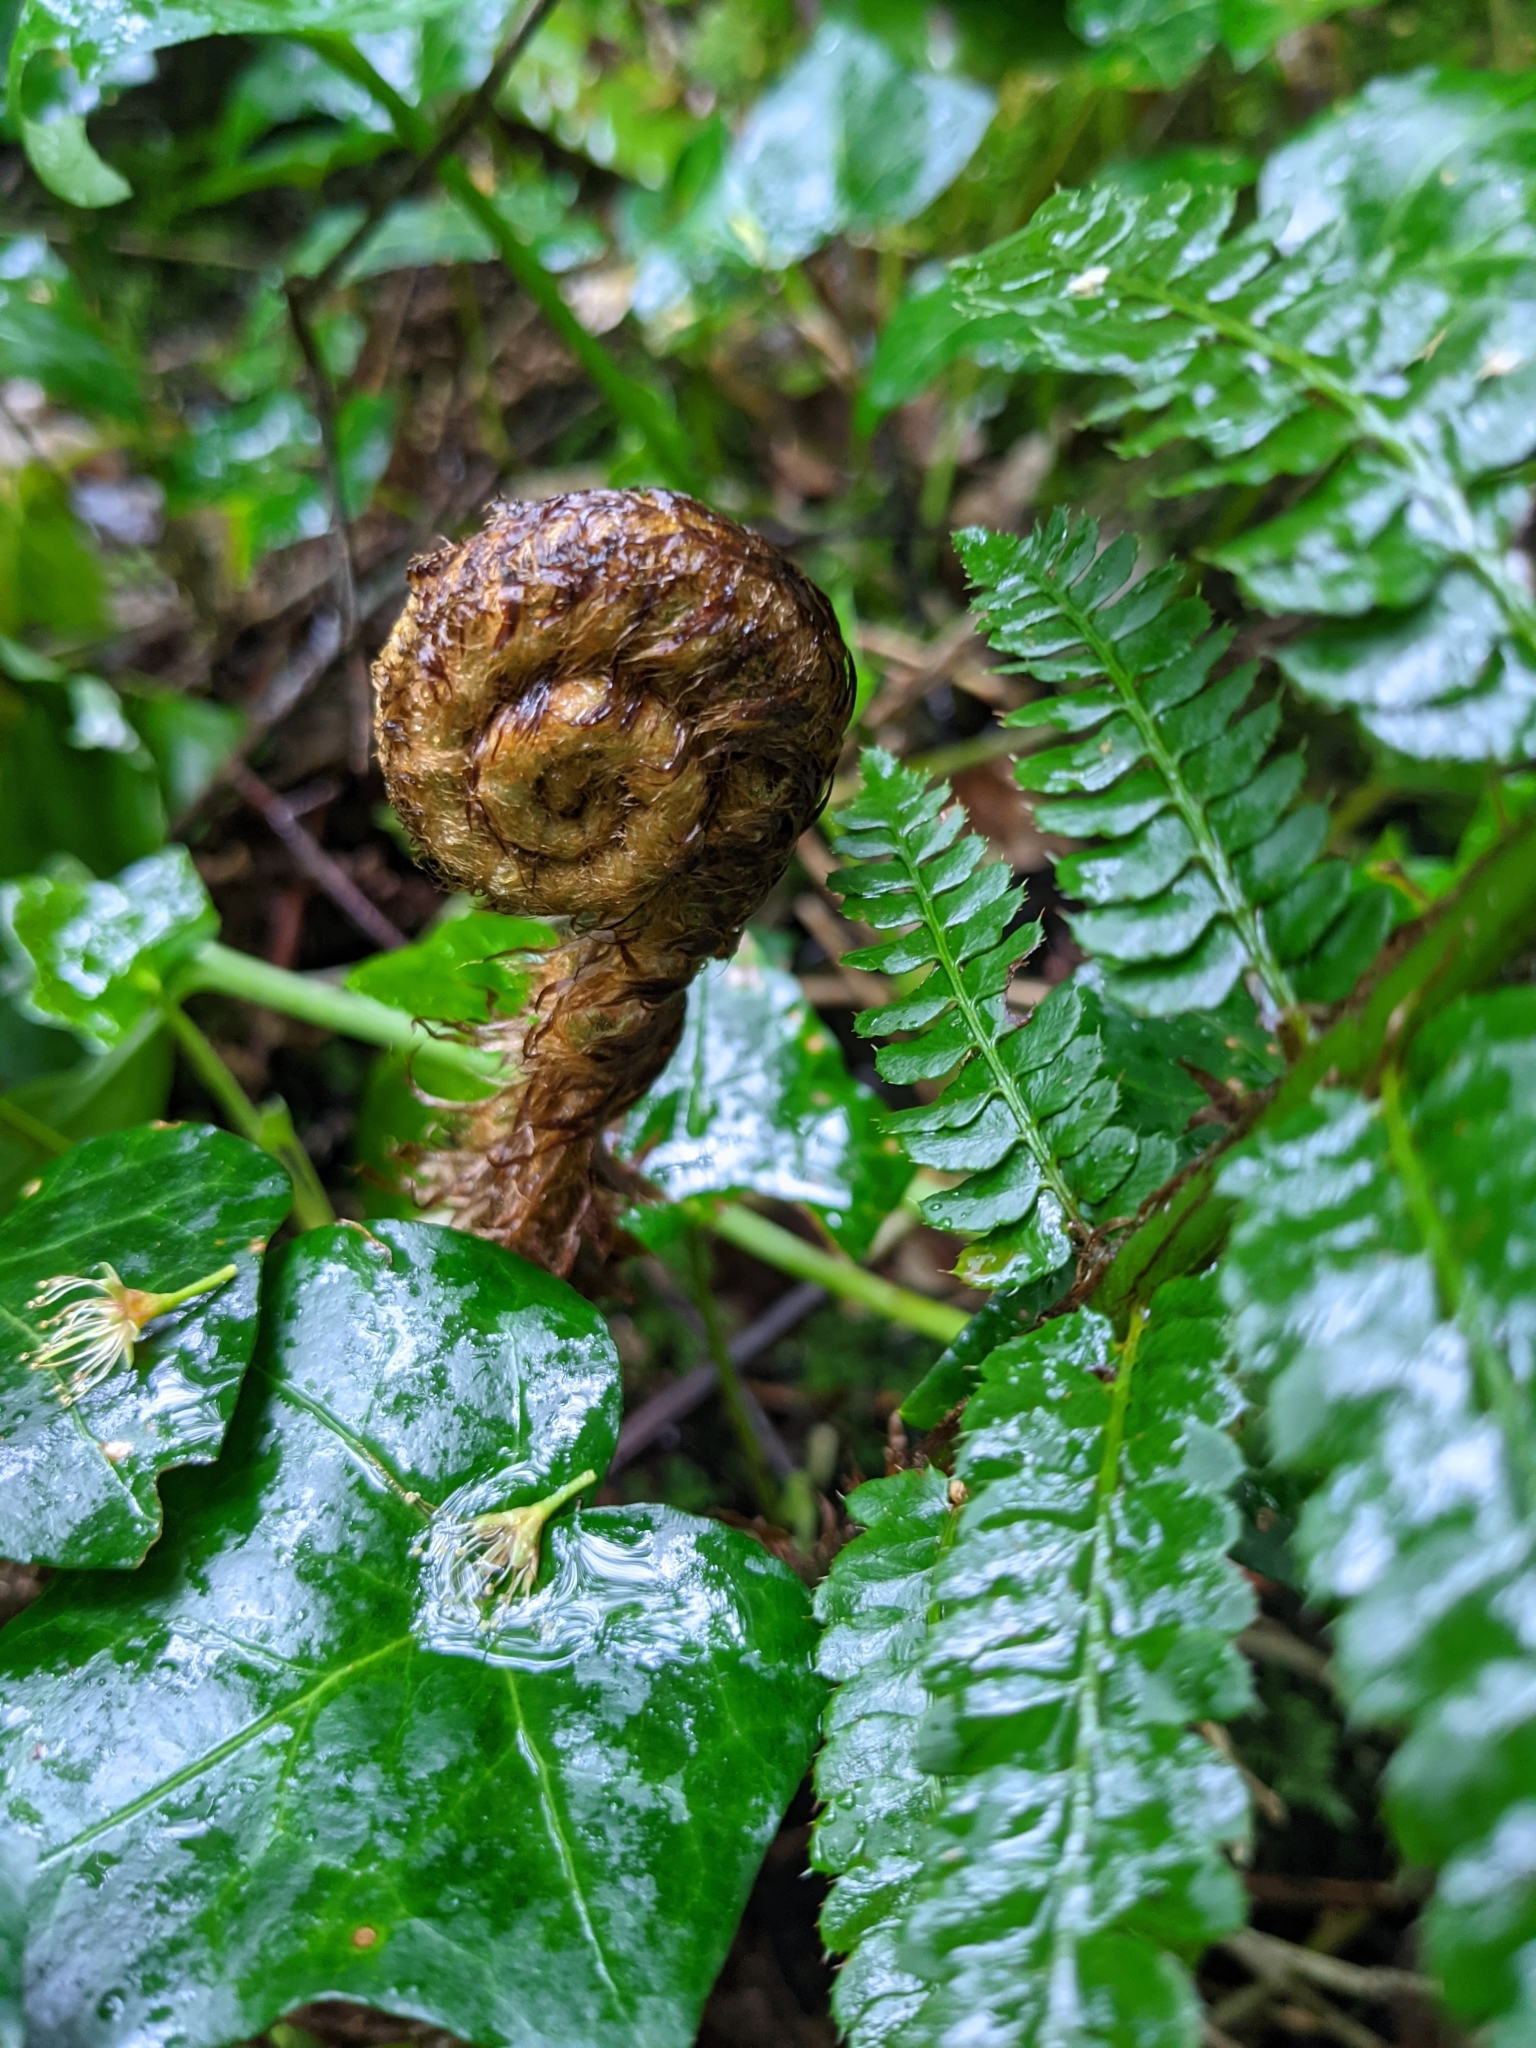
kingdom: Plantae
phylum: Tracheophyta
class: Polypodiopsida
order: Polypodiales
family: Dryopteridaceae
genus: Polystichum
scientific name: Polystichum setiferum
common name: Soft shield-fern
